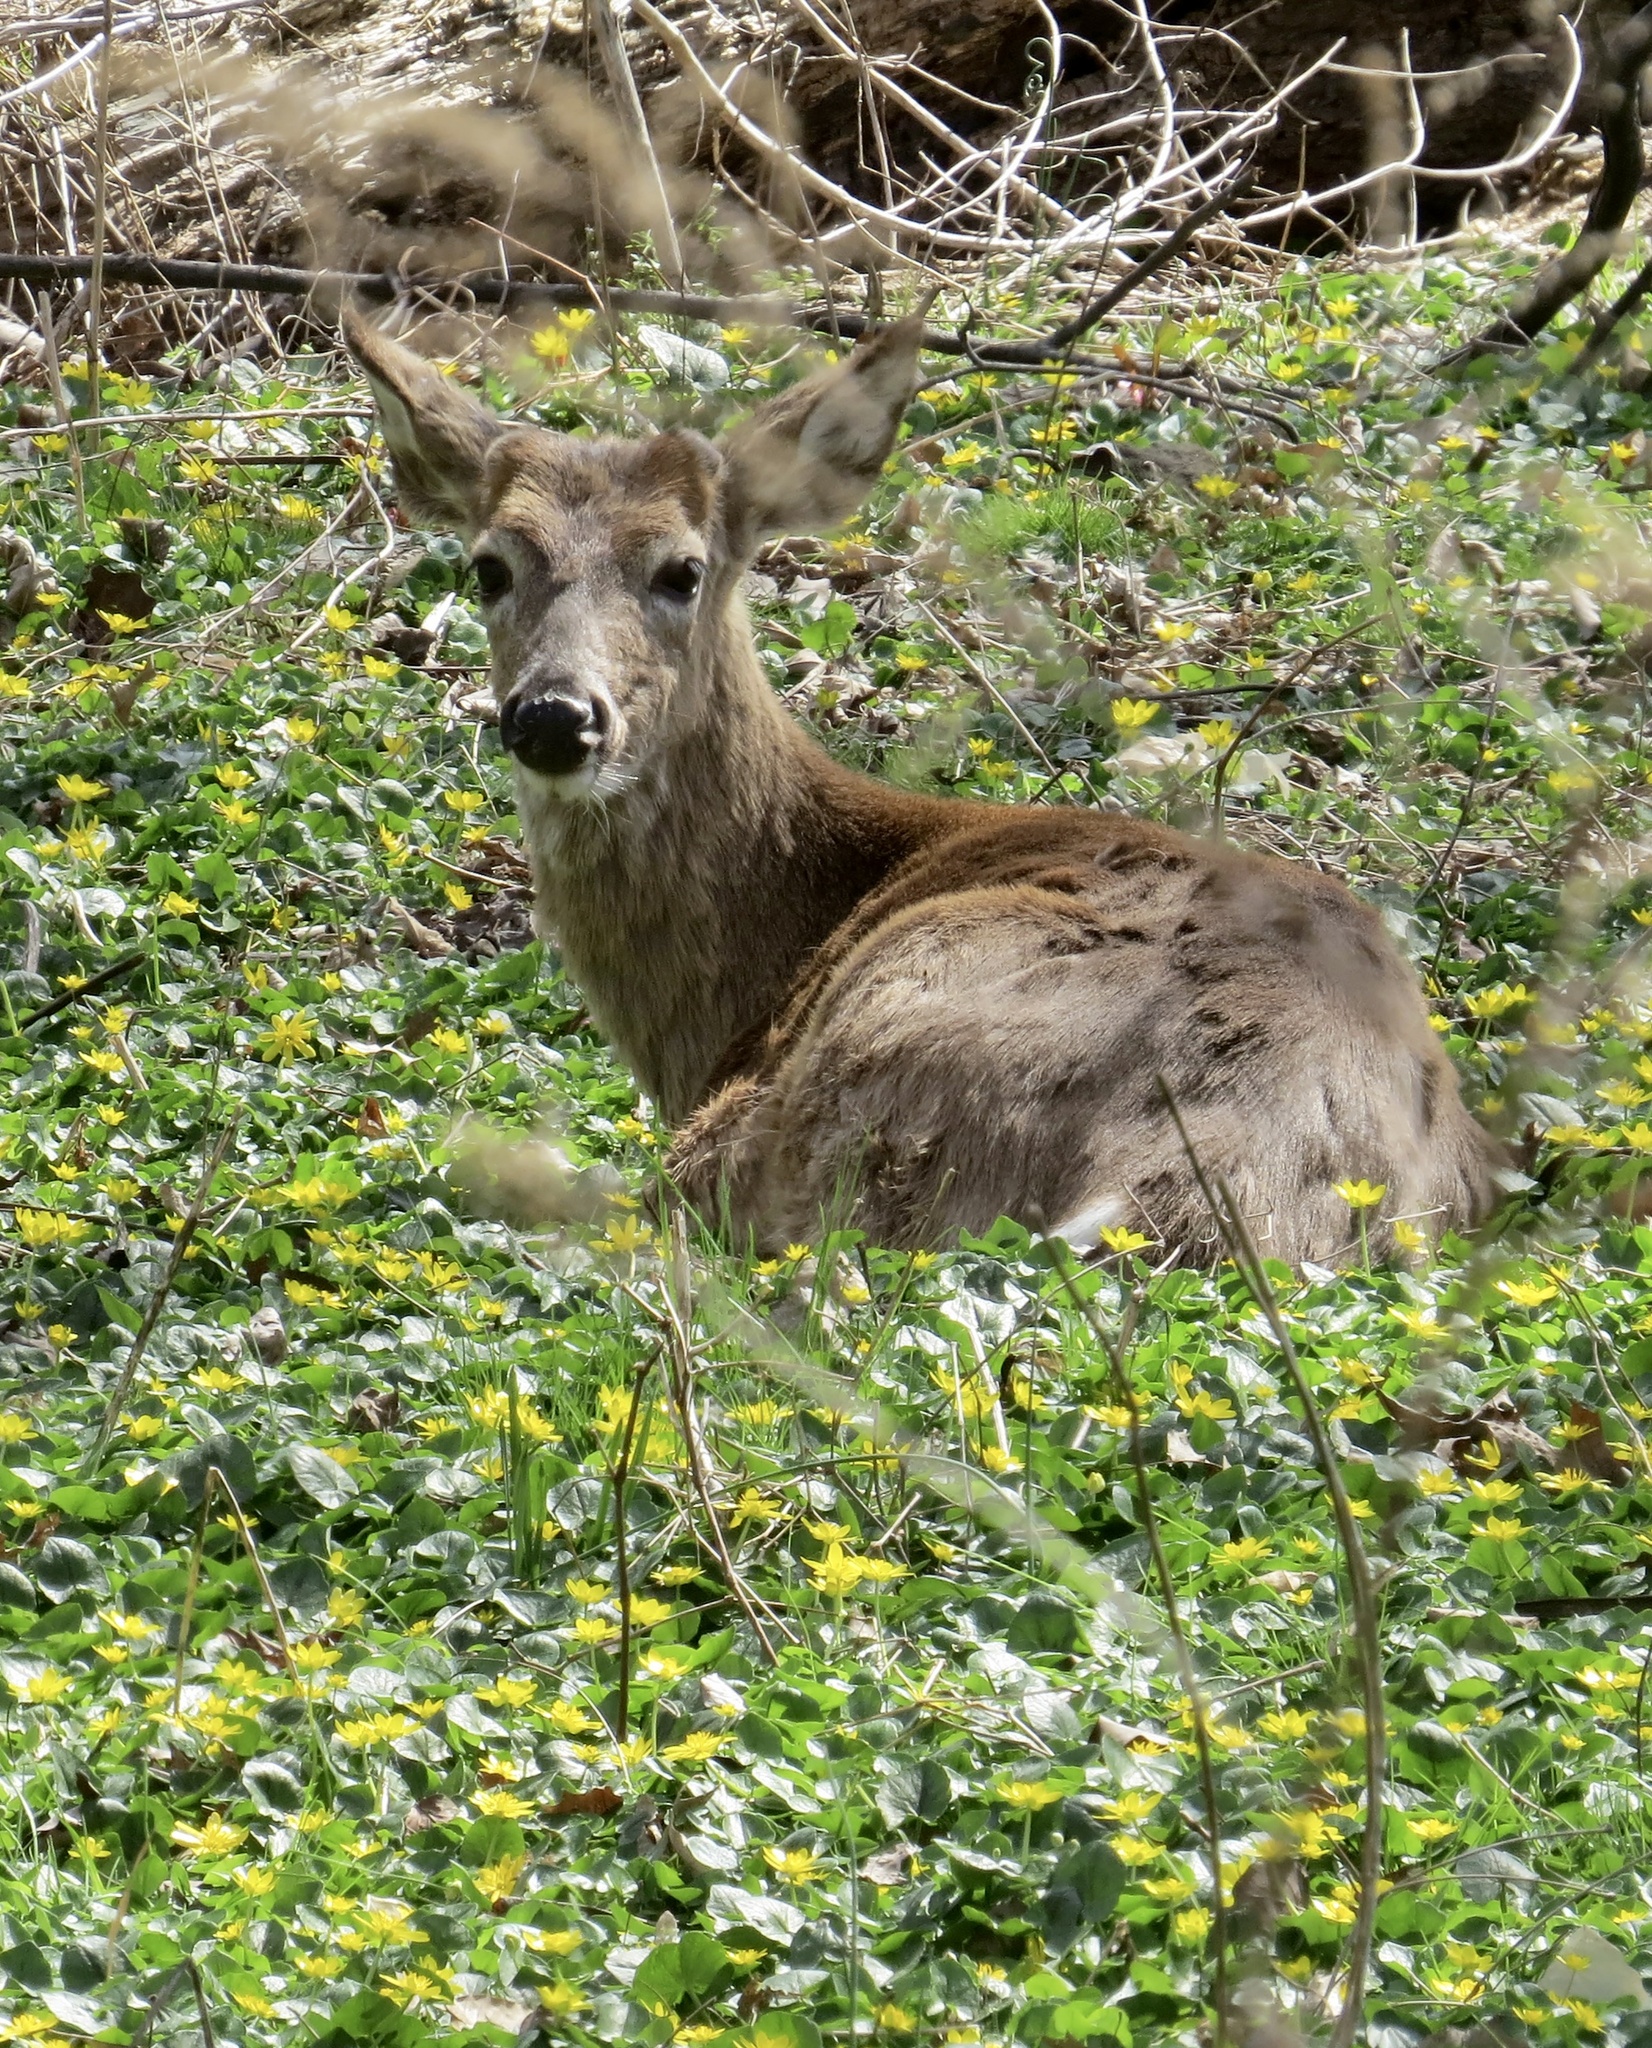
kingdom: Animalia
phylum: Chordata
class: Mammalia
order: Artiodactyla
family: Cervidae
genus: Odocoileus
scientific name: Odocoileus virginianus
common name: White-tailed deer
